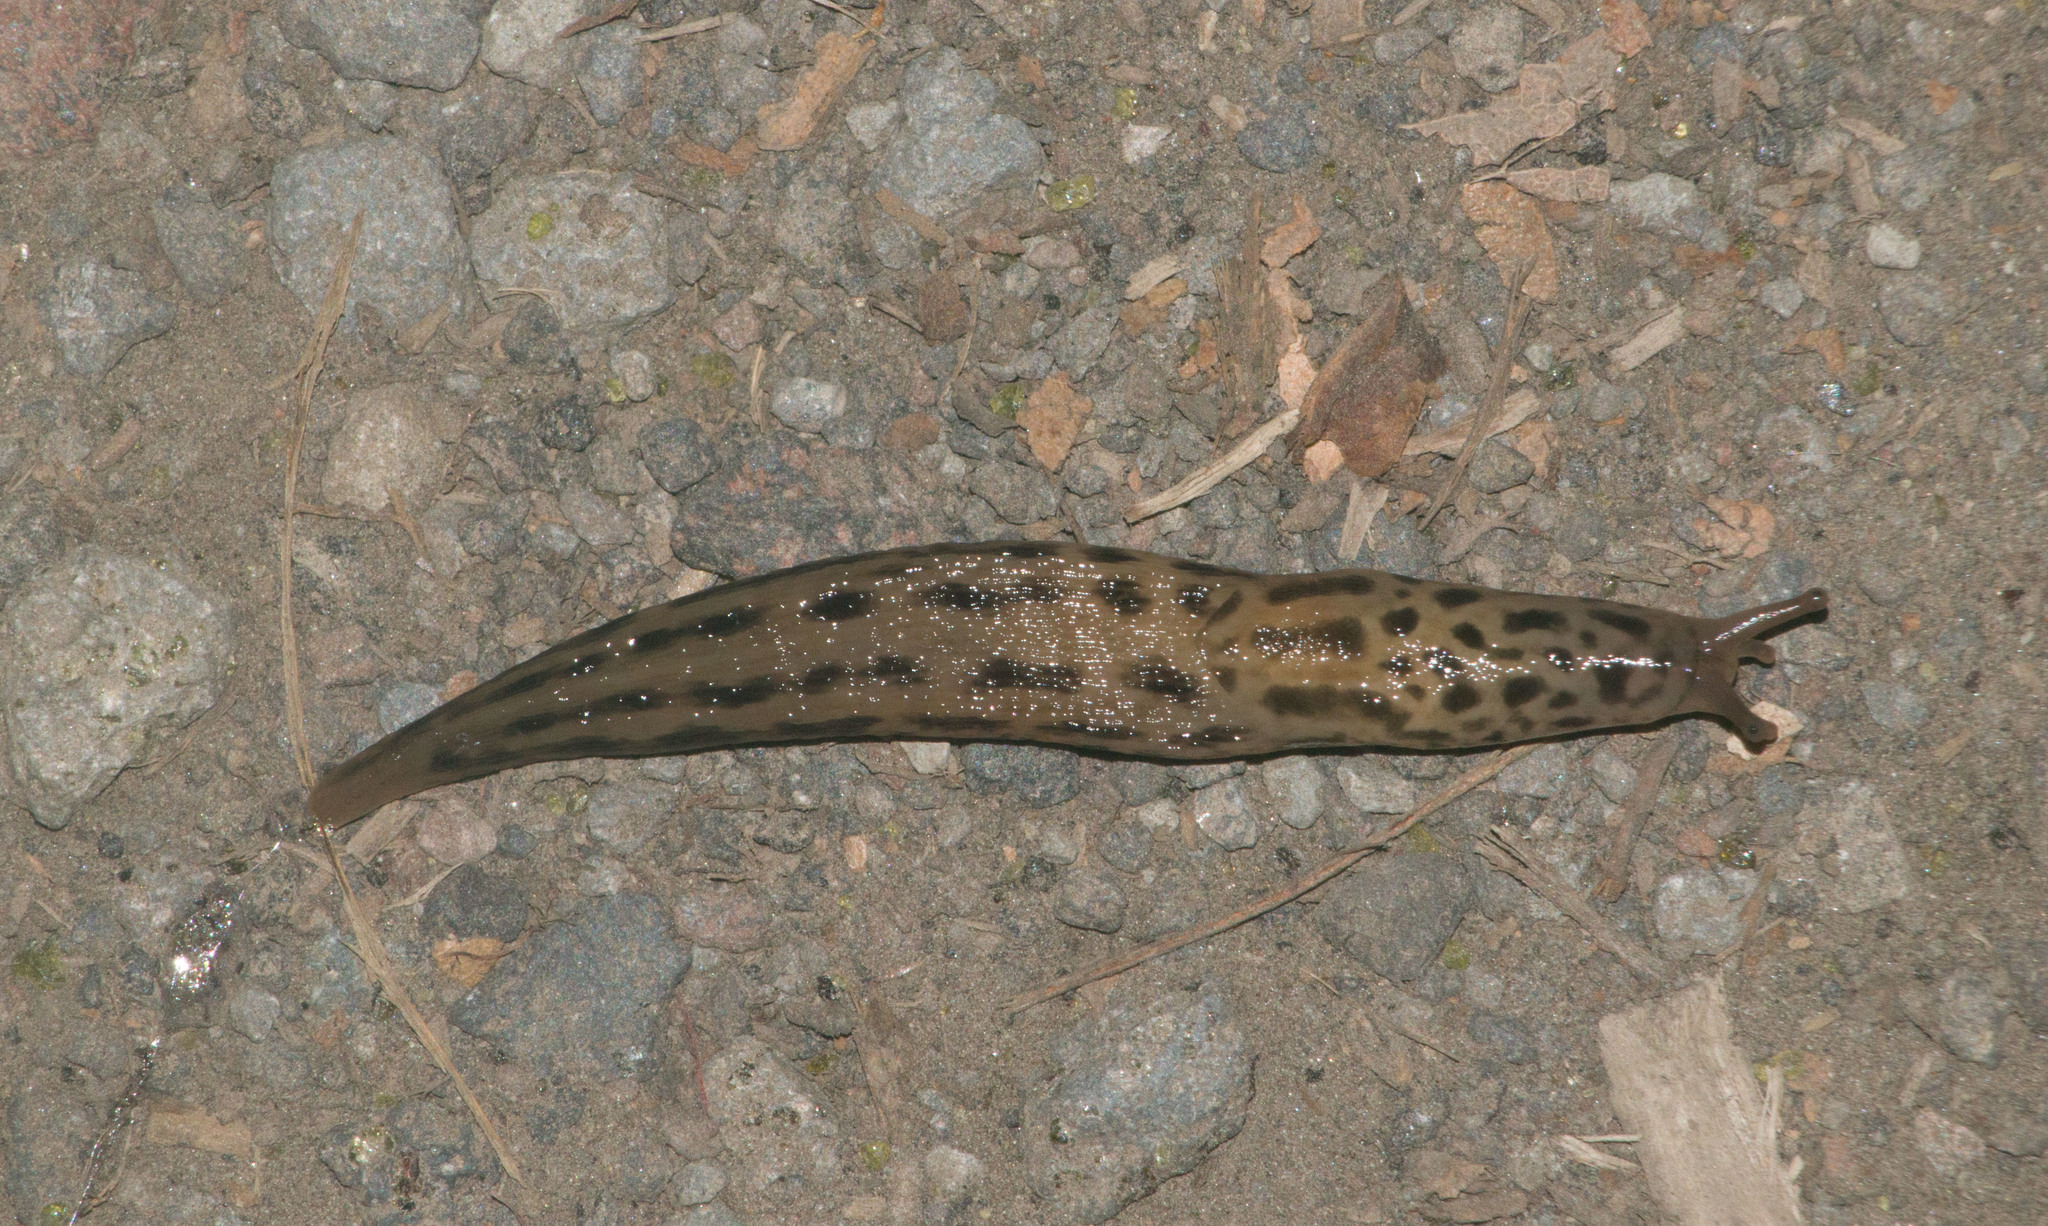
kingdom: Animalia
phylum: Mollusca
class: Gastropoda
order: Stylommatophora
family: Limacidae
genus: Limax
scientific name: Limax maximus
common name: Great grey slug
